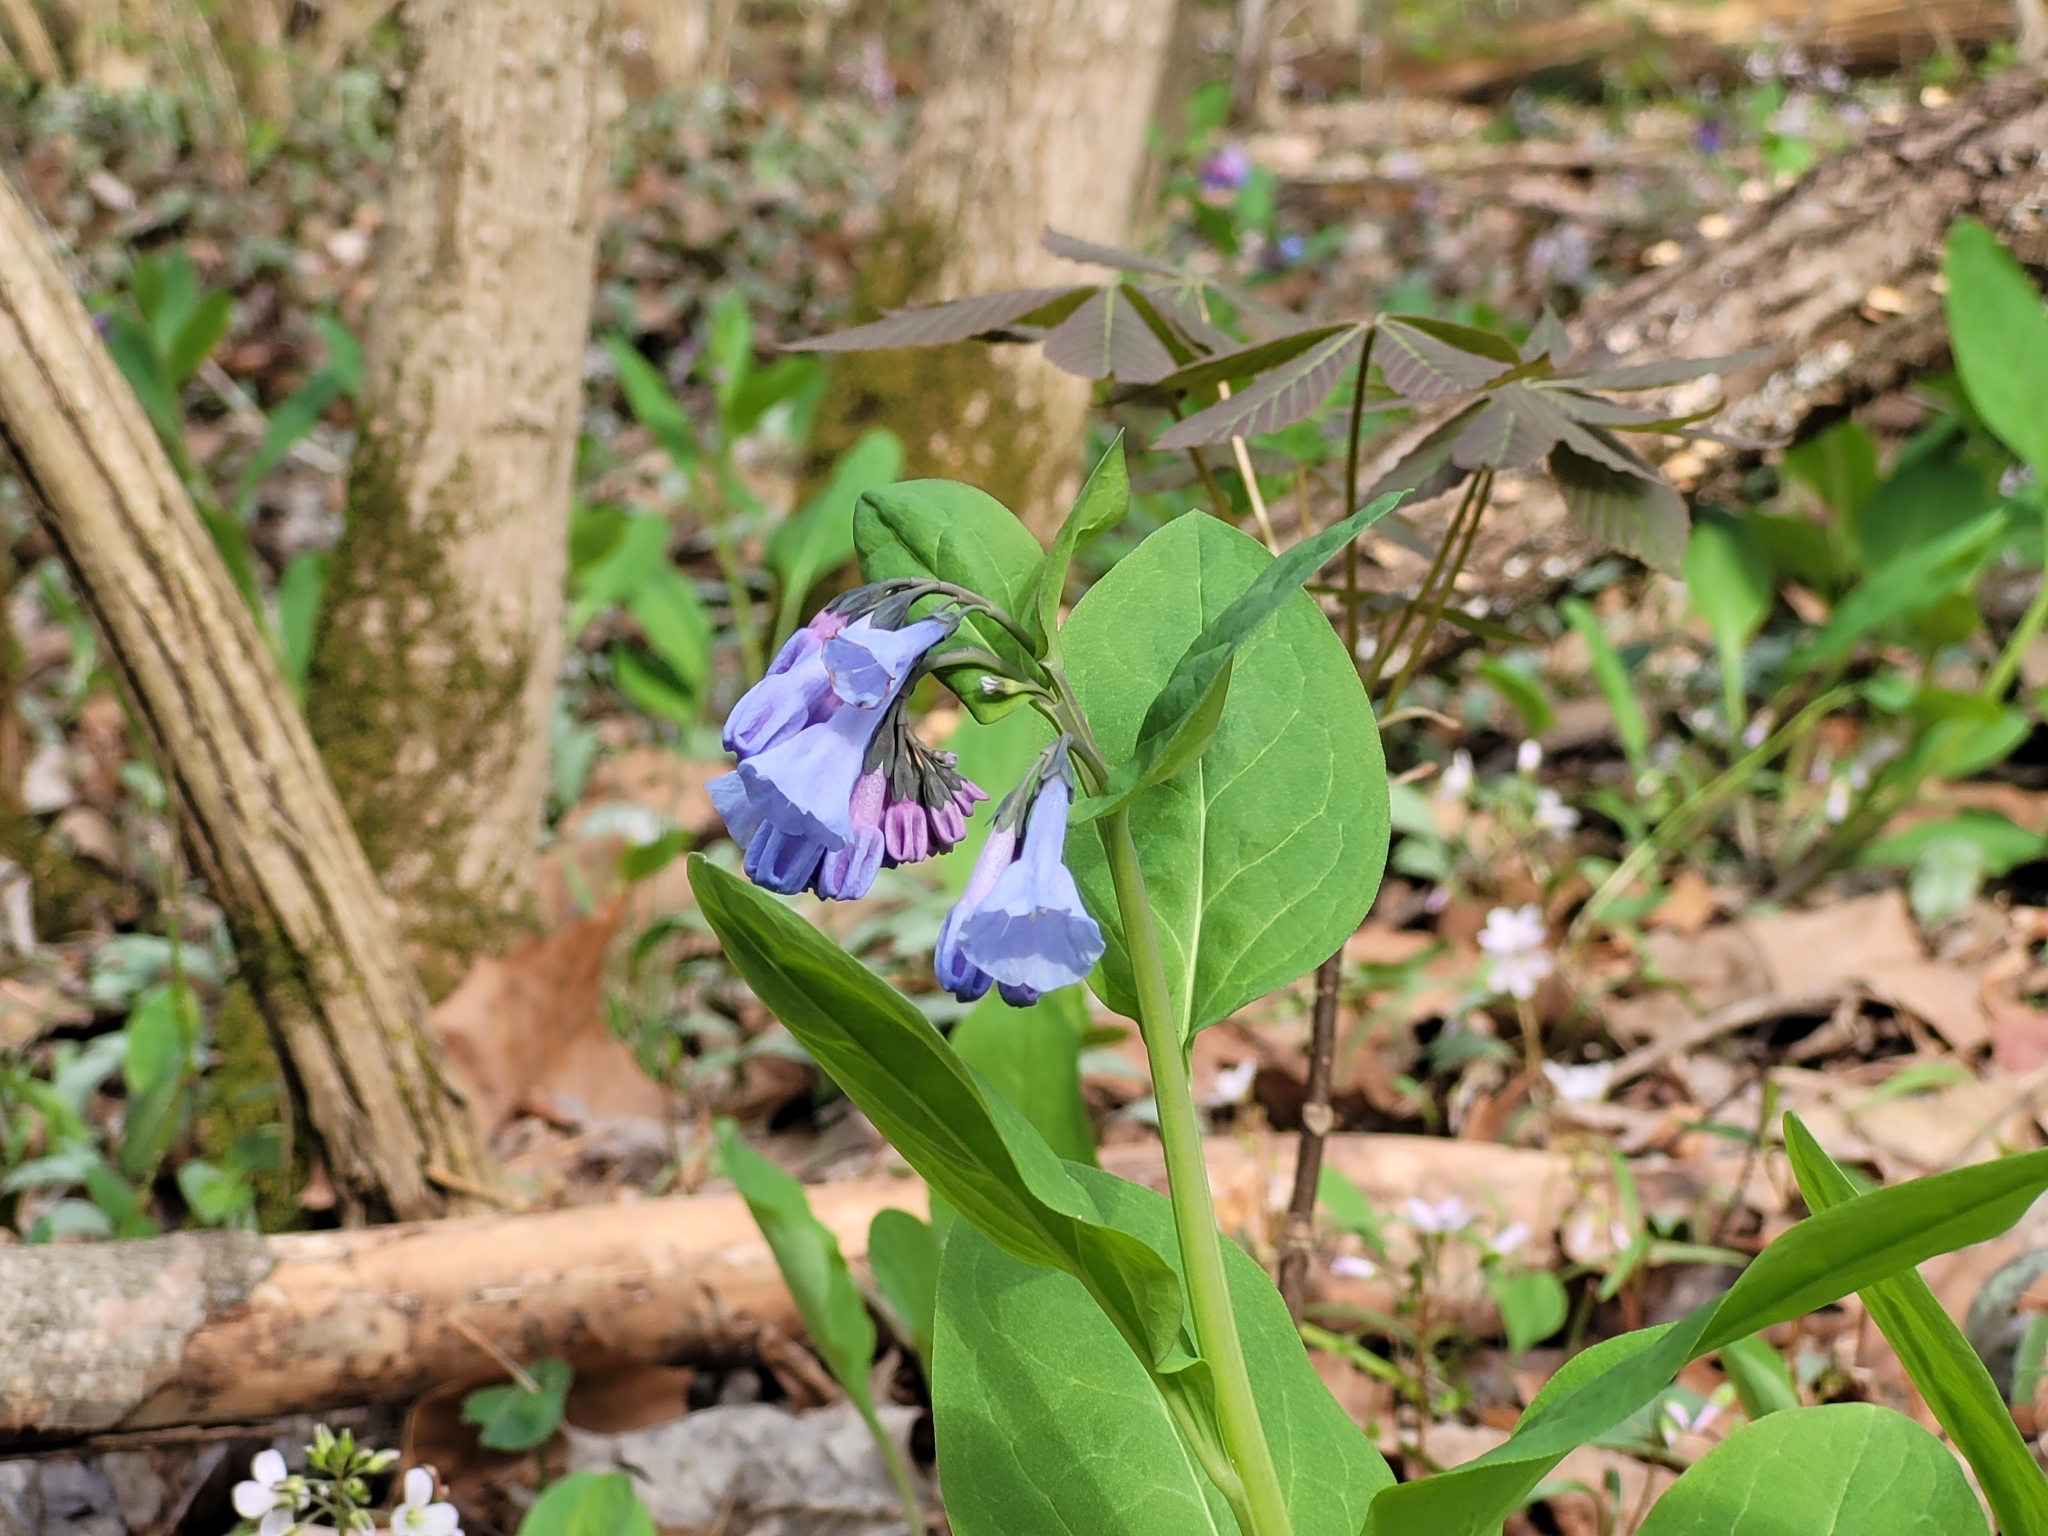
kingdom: Plantae
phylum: Tracheophyta
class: Magnoliopsida
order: Boraginales
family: Boraginaceae
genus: Mertensia
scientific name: Mertensia virginica
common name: Virginia bluebells
